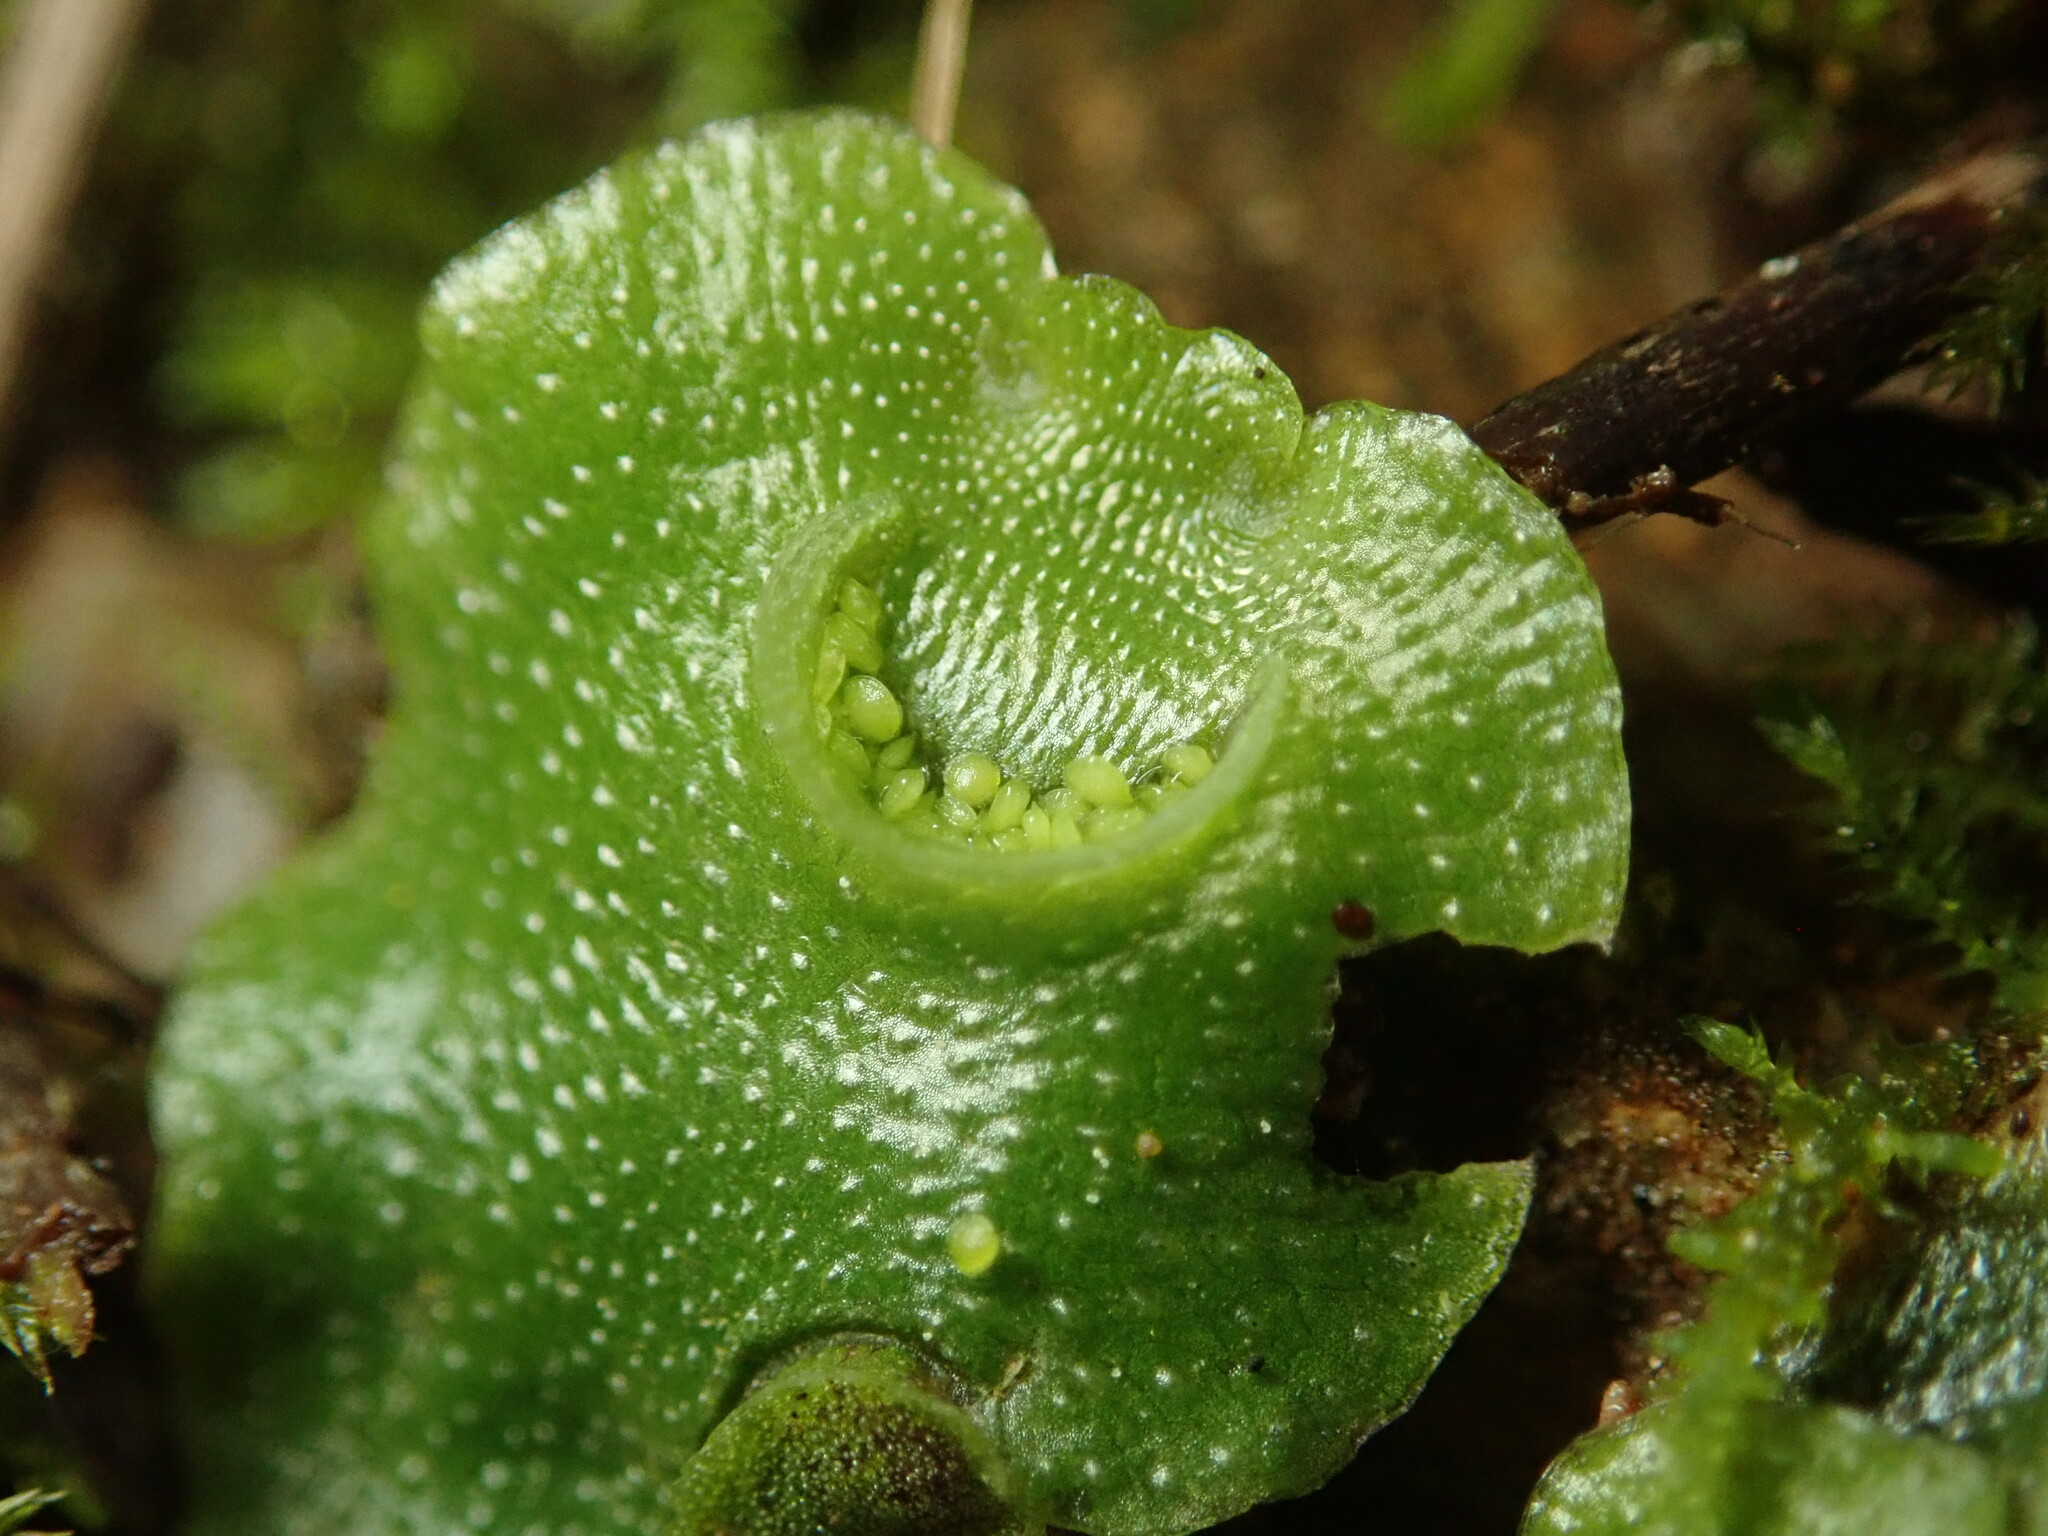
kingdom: Plantae
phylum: Marchantiophyta
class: Marchantiopsida
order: Lunulariales
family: Lunulariaceae
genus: Lunularia
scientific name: Lunularia cruciata
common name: Crescent-cup liverwort
